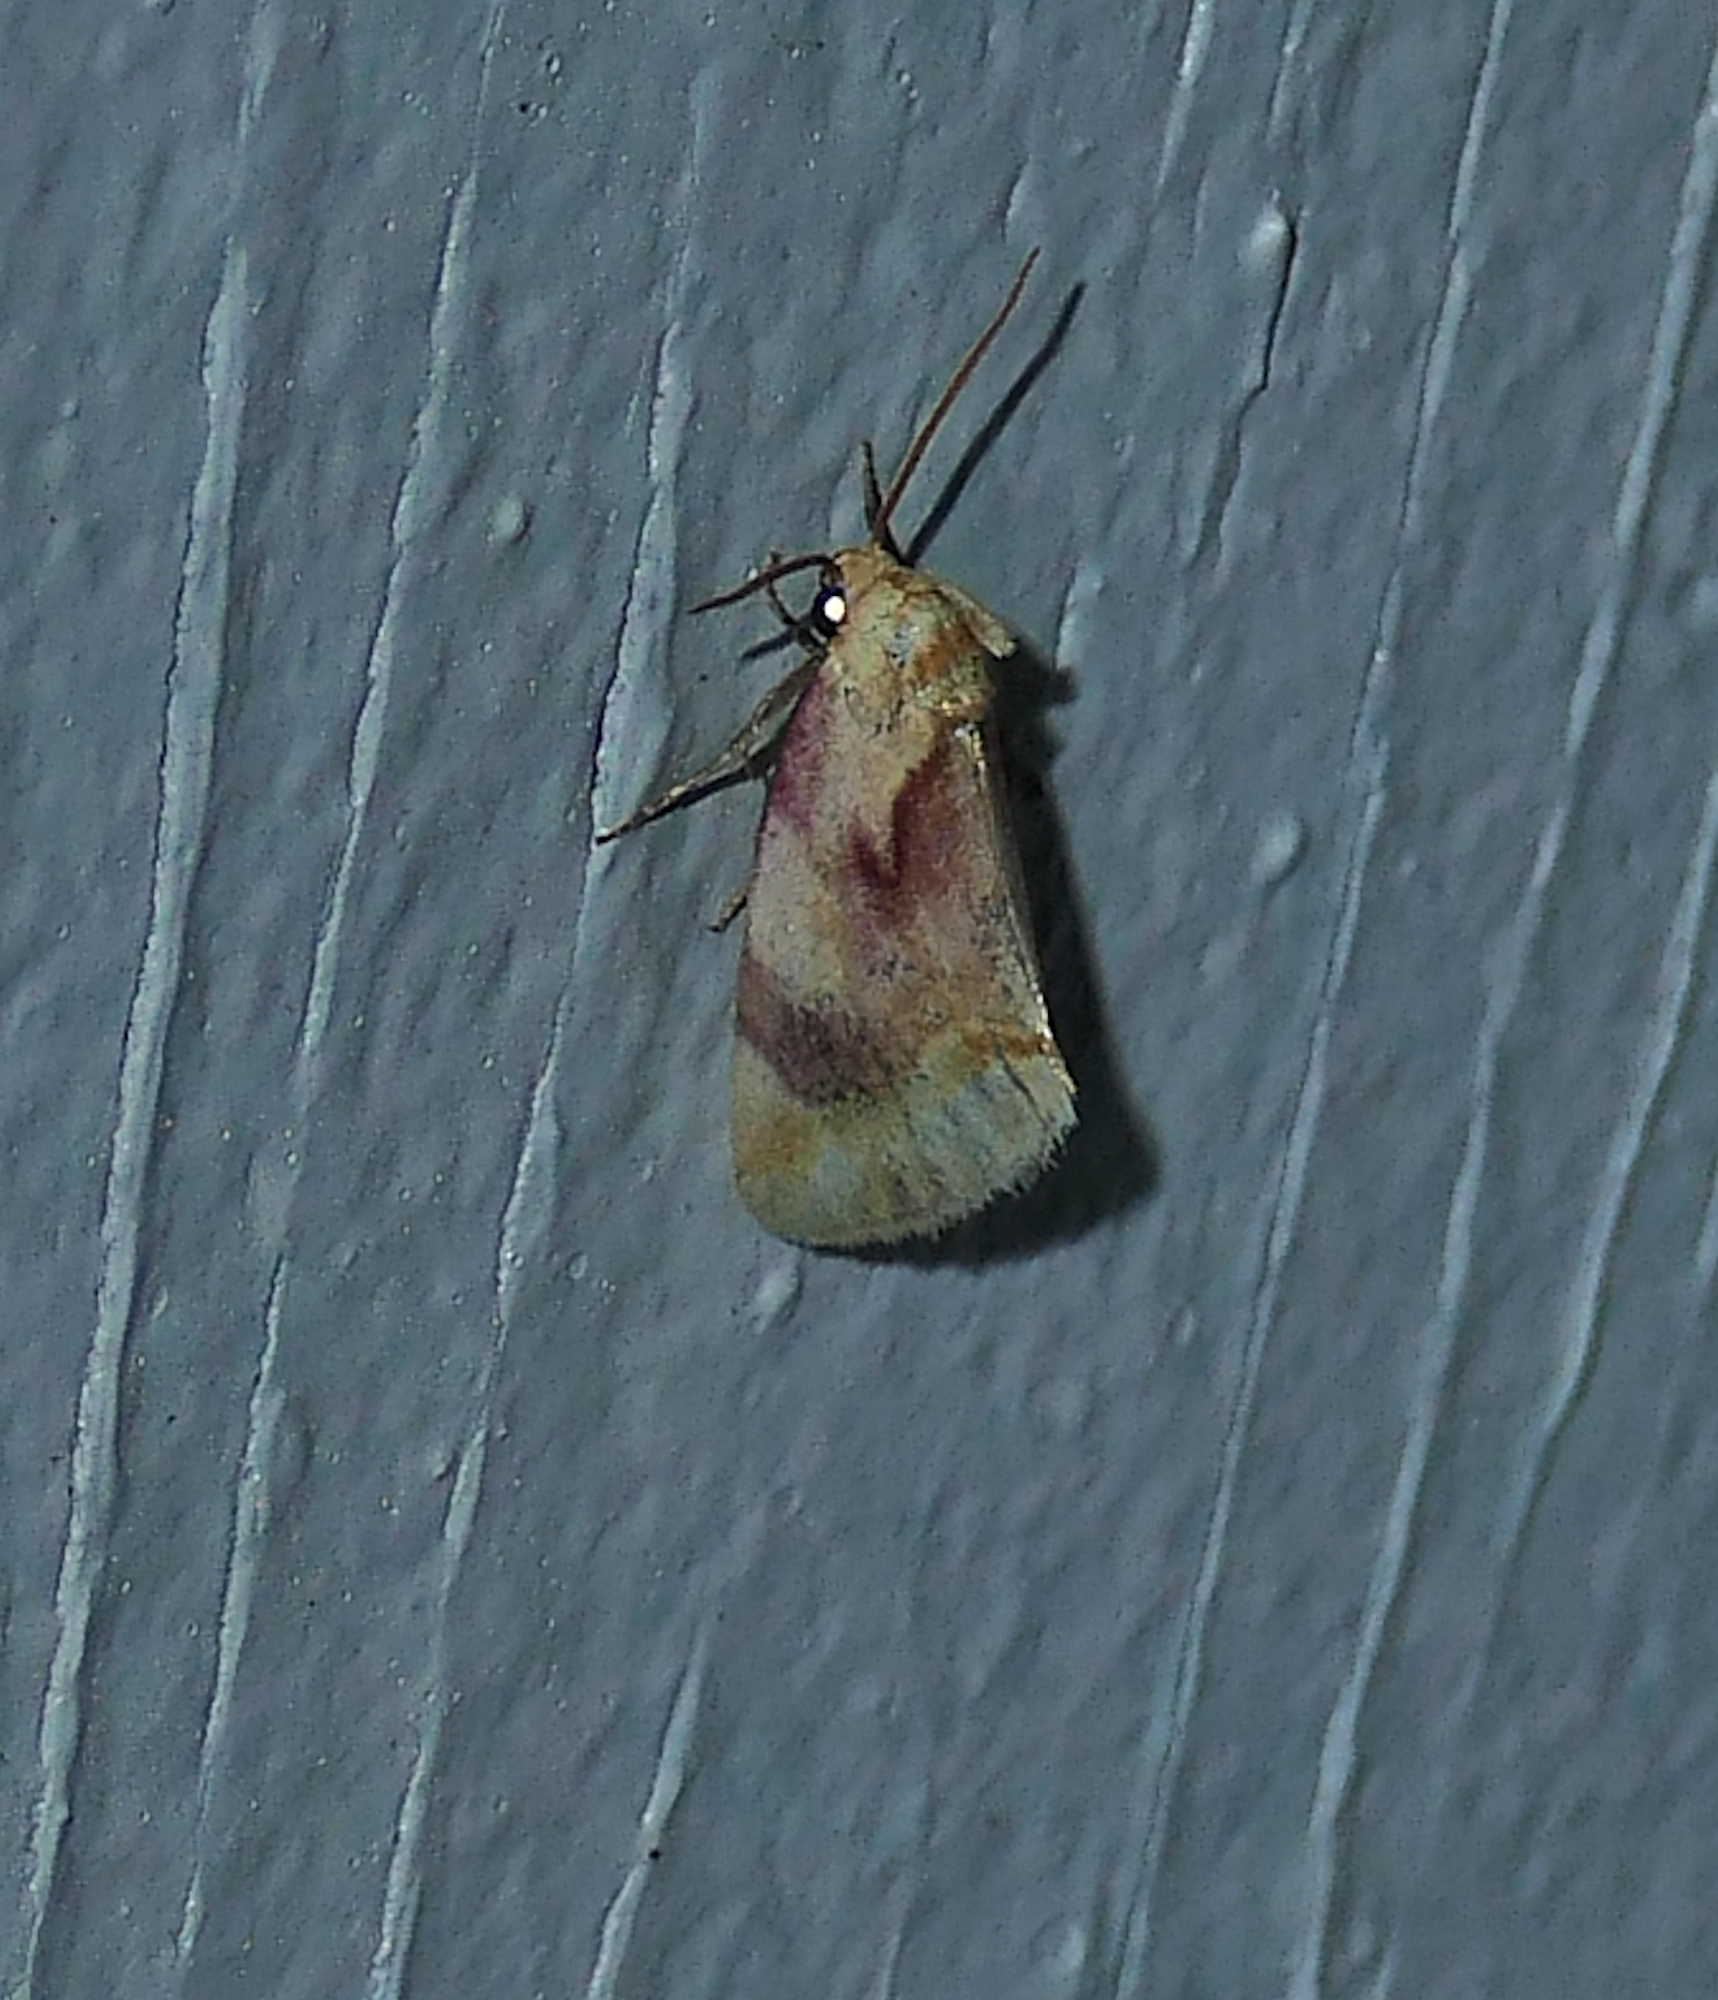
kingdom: Animalia
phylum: Arthropoda
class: Insecta
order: Lepidoptera
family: Noctuidae
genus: Chamaeclea
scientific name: Chamaeclea pernana
